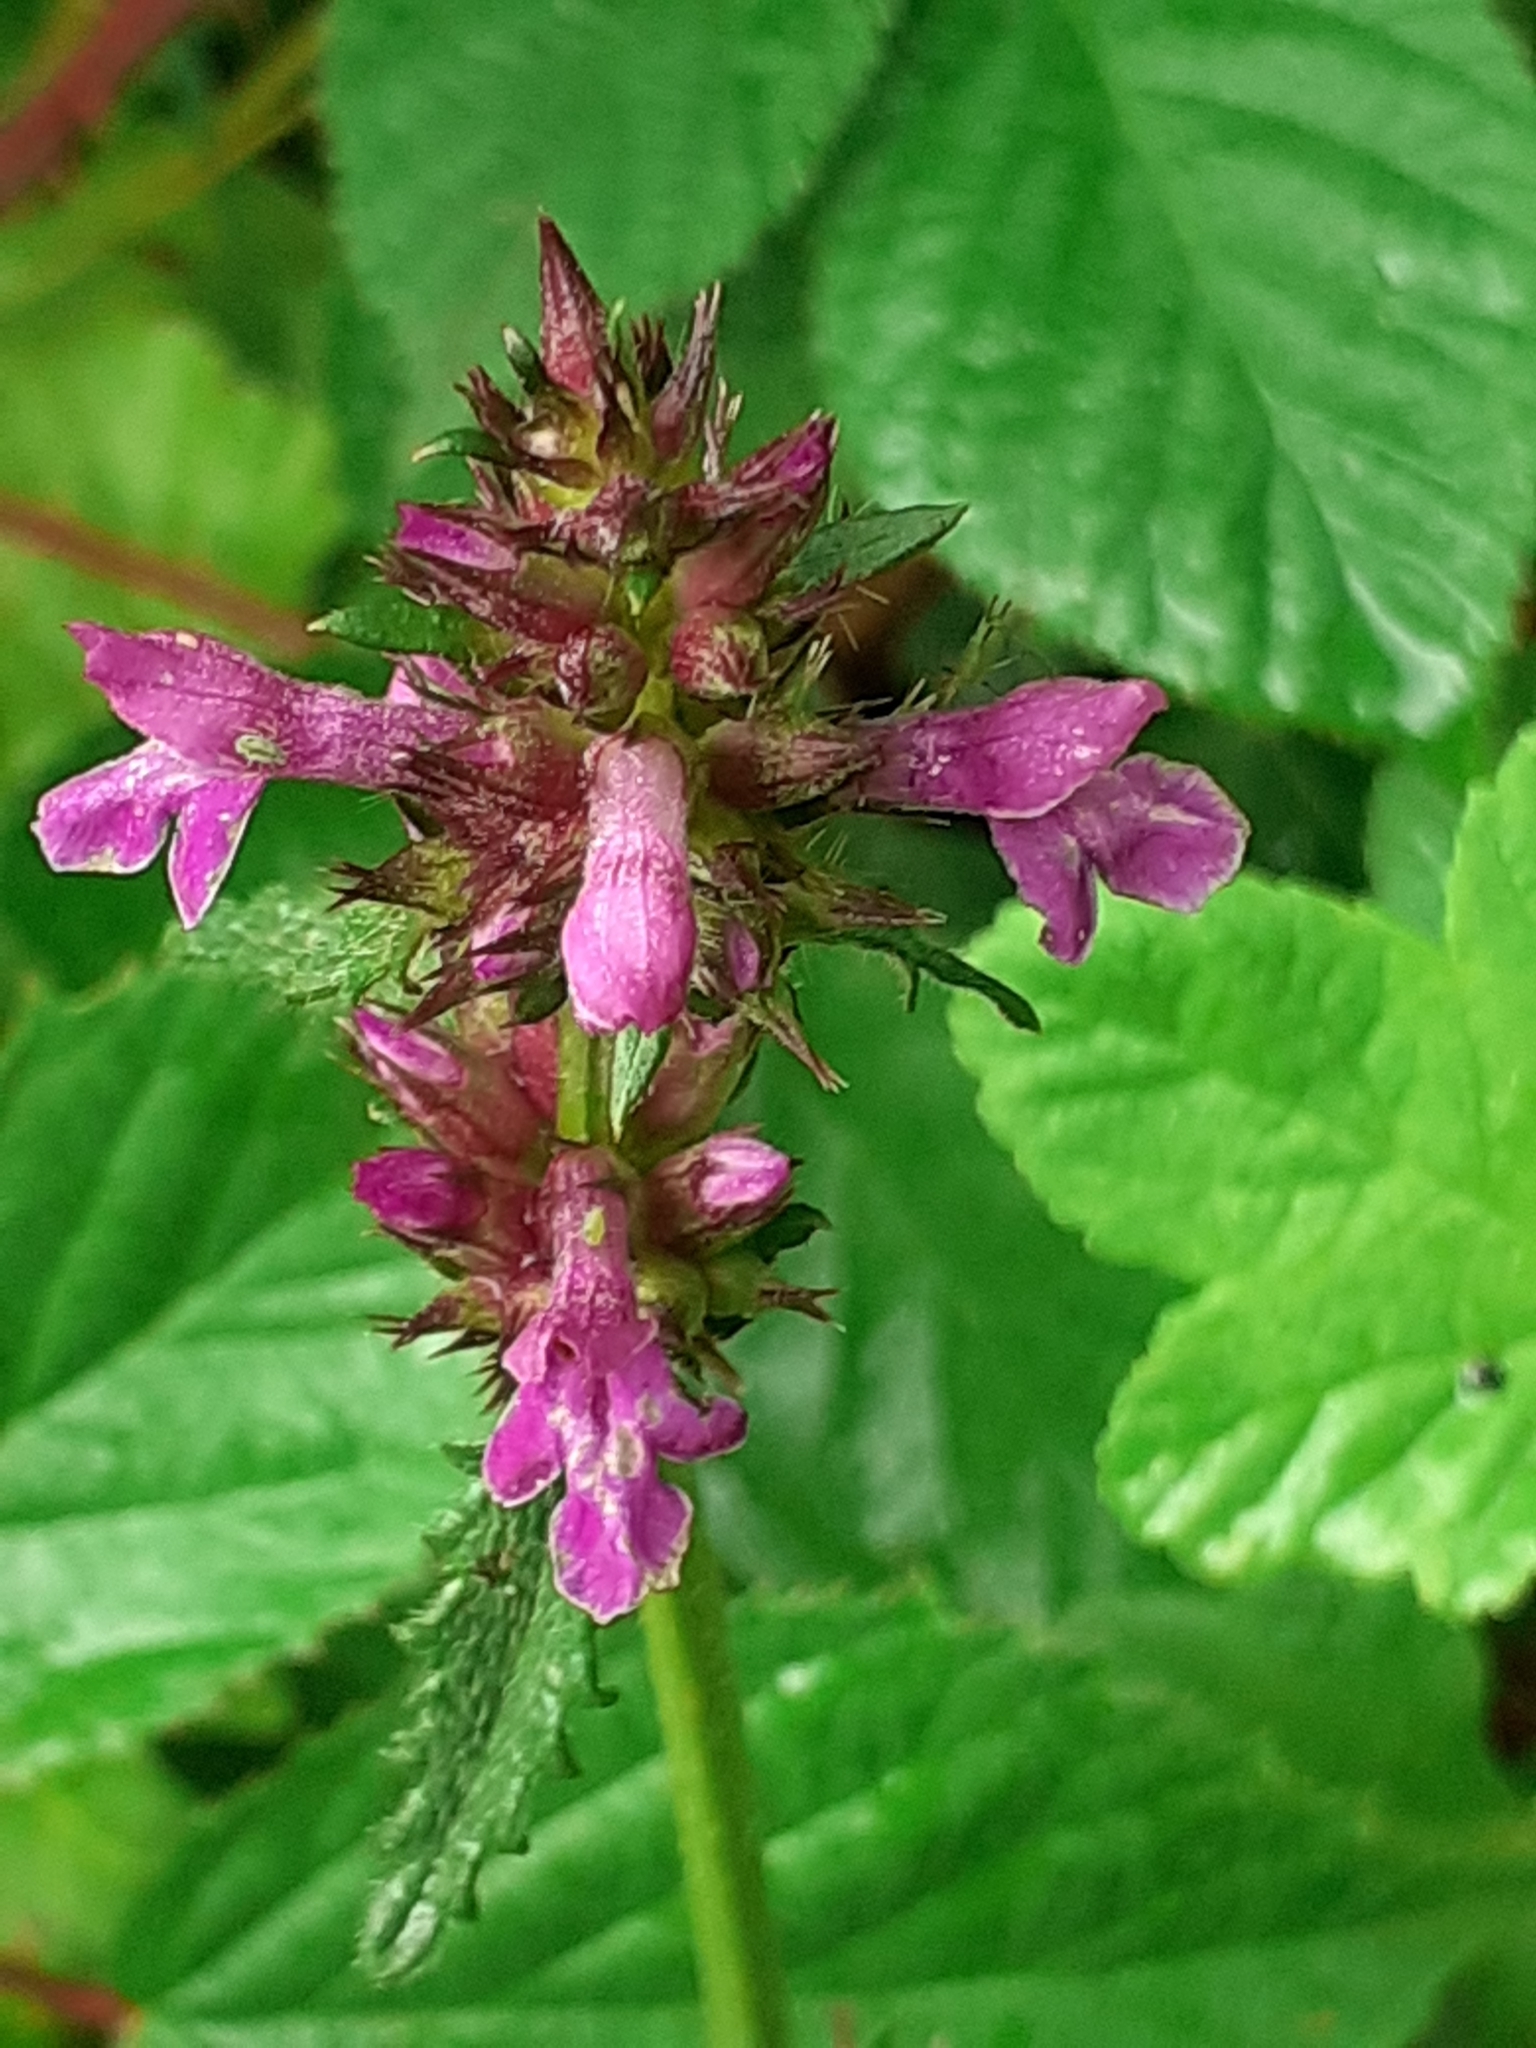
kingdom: Plantae
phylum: Tracheophyta
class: Magnoliopsida
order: Lamiales
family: Lamiaceae
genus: Betonica
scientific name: Betonica officinalis
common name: Bishop's-wort
